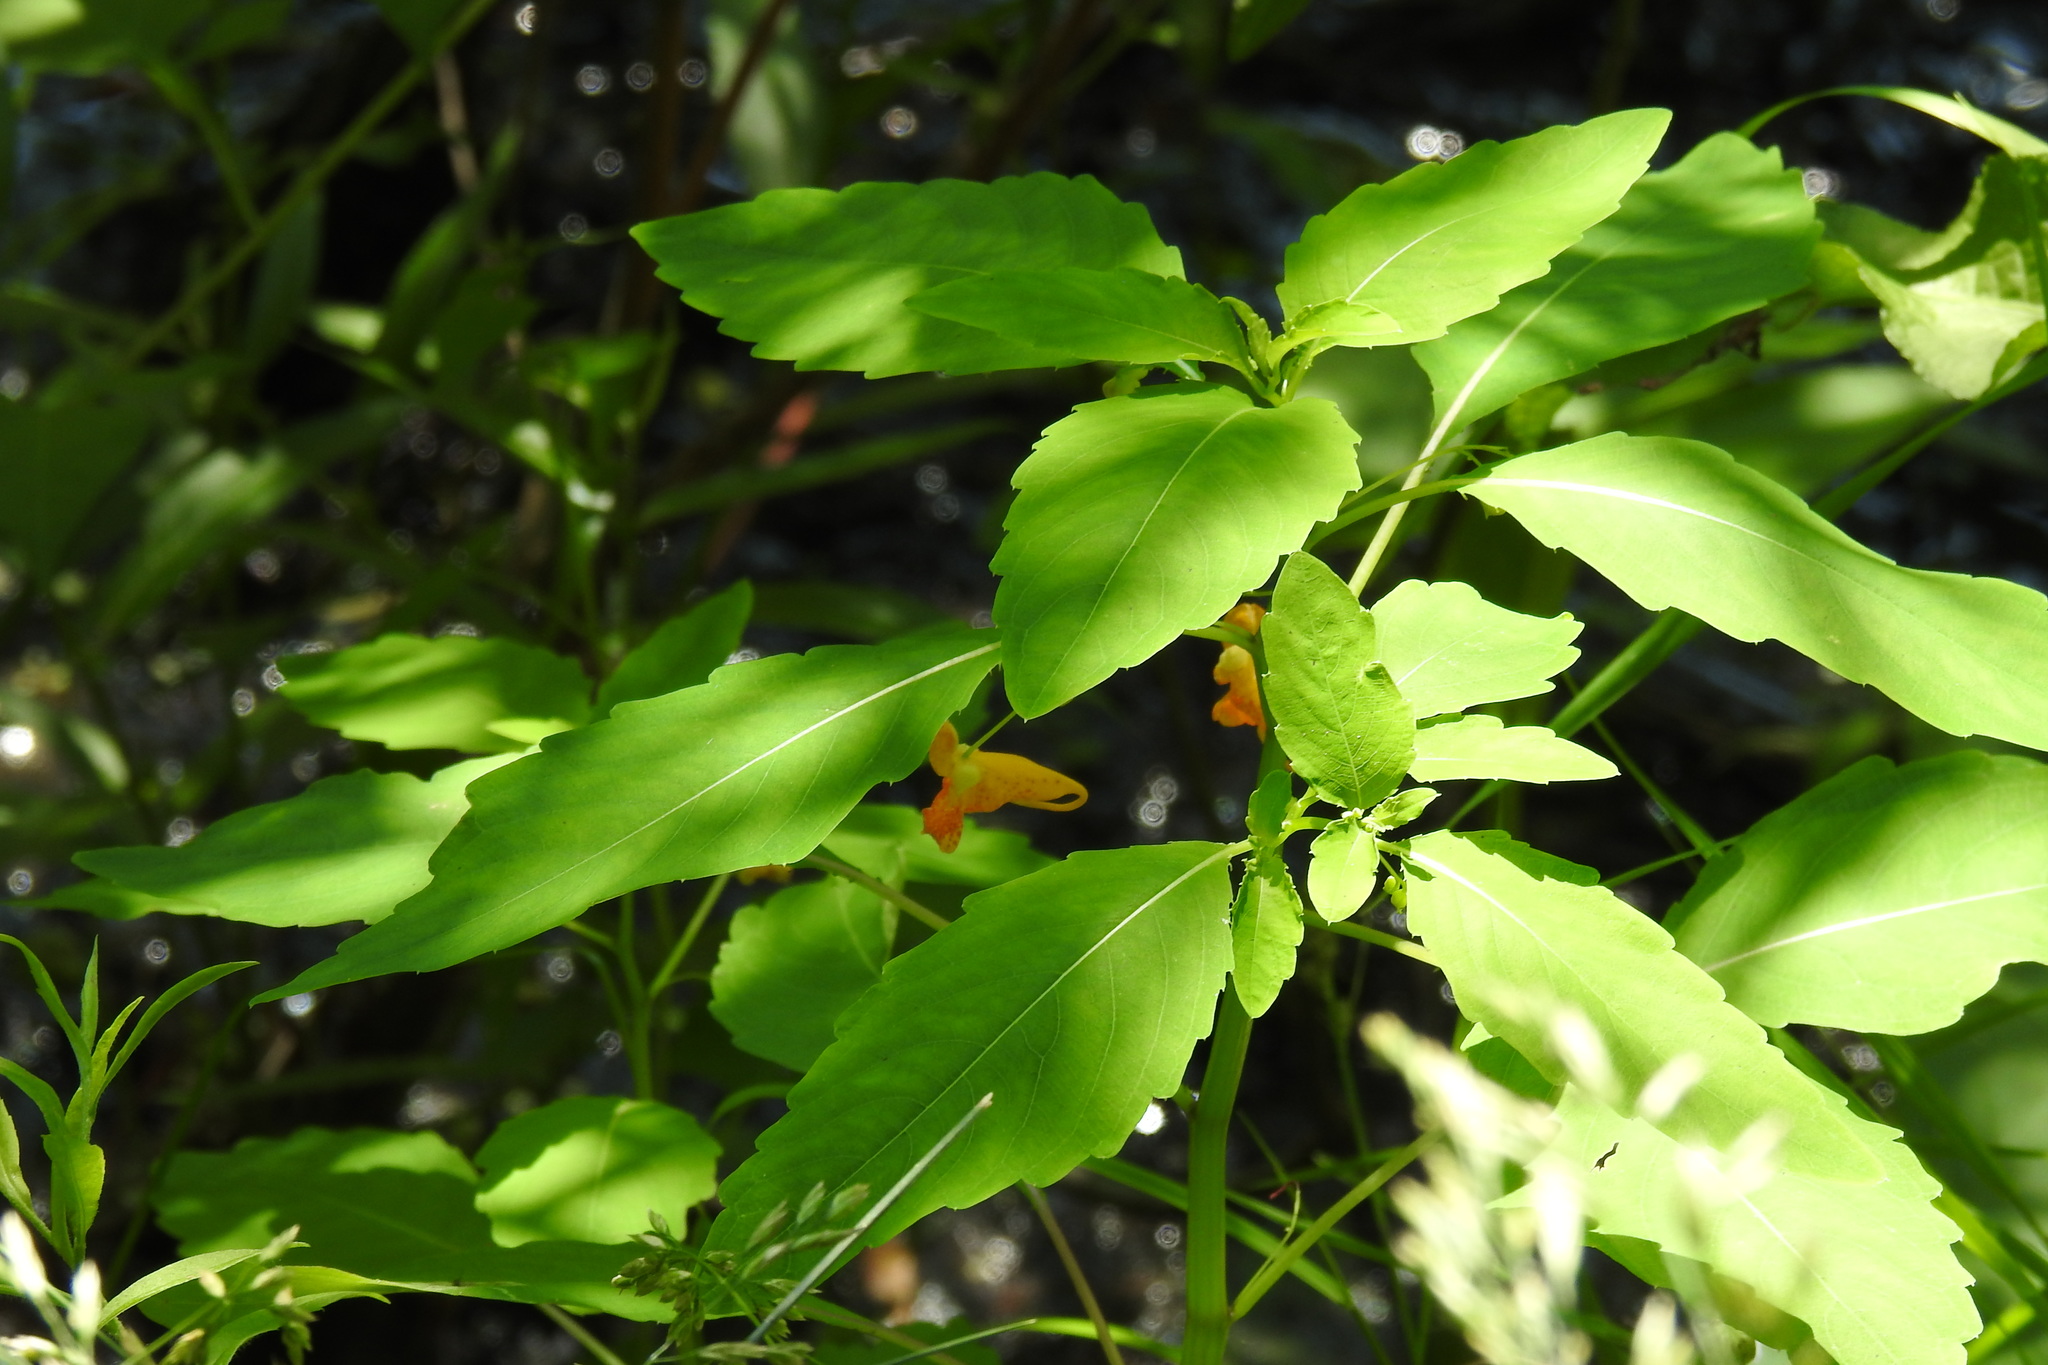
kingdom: Plantae
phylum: Tracheophyta
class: Magnoliopsida
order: Ericales
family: Balsaminaceae
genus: Impatiens
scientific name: Impatiens capensis
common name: Orange balsam
